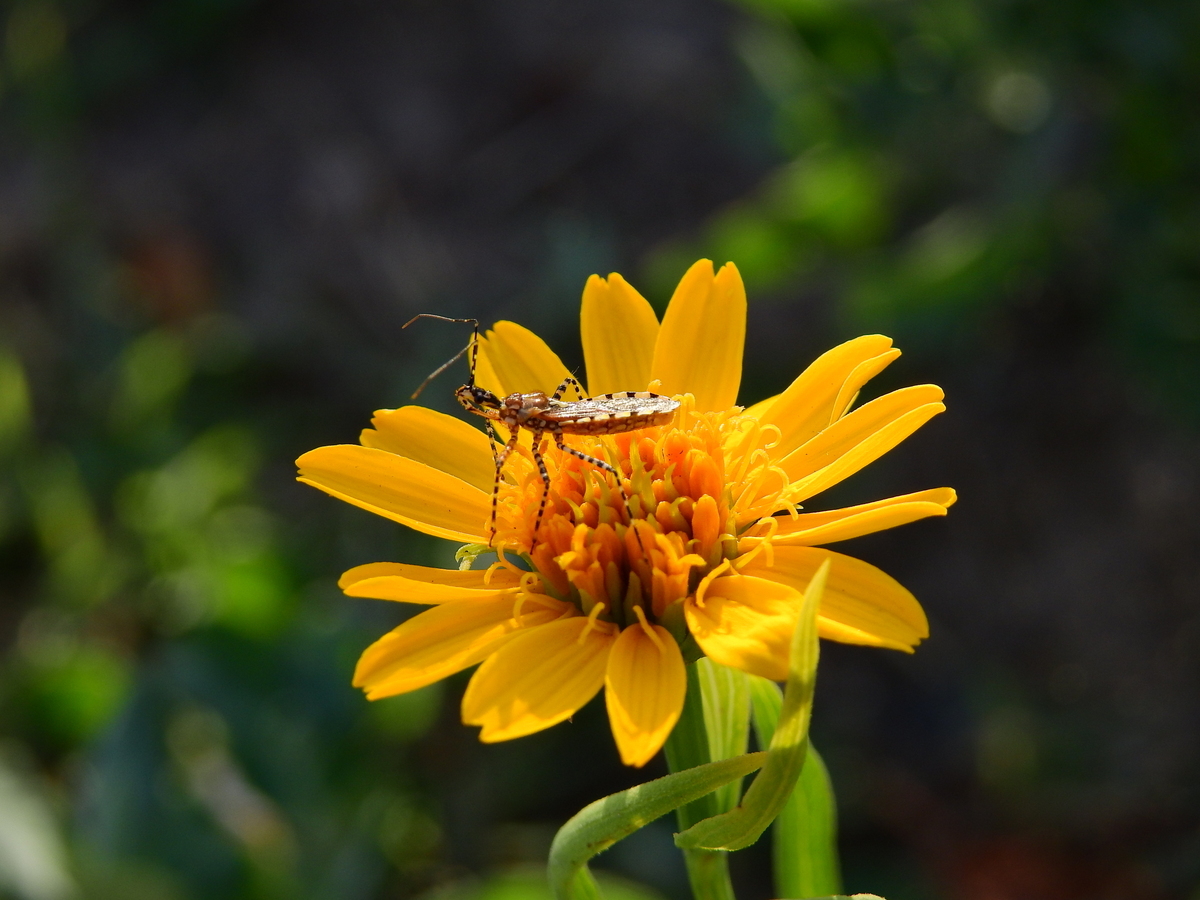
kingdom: Animalia
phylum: Arthropoda
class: Insecta
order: Hemiptera
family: Reduviidae
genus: Cosmoclopius
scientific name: Cosmoclopius nigroannulatus
